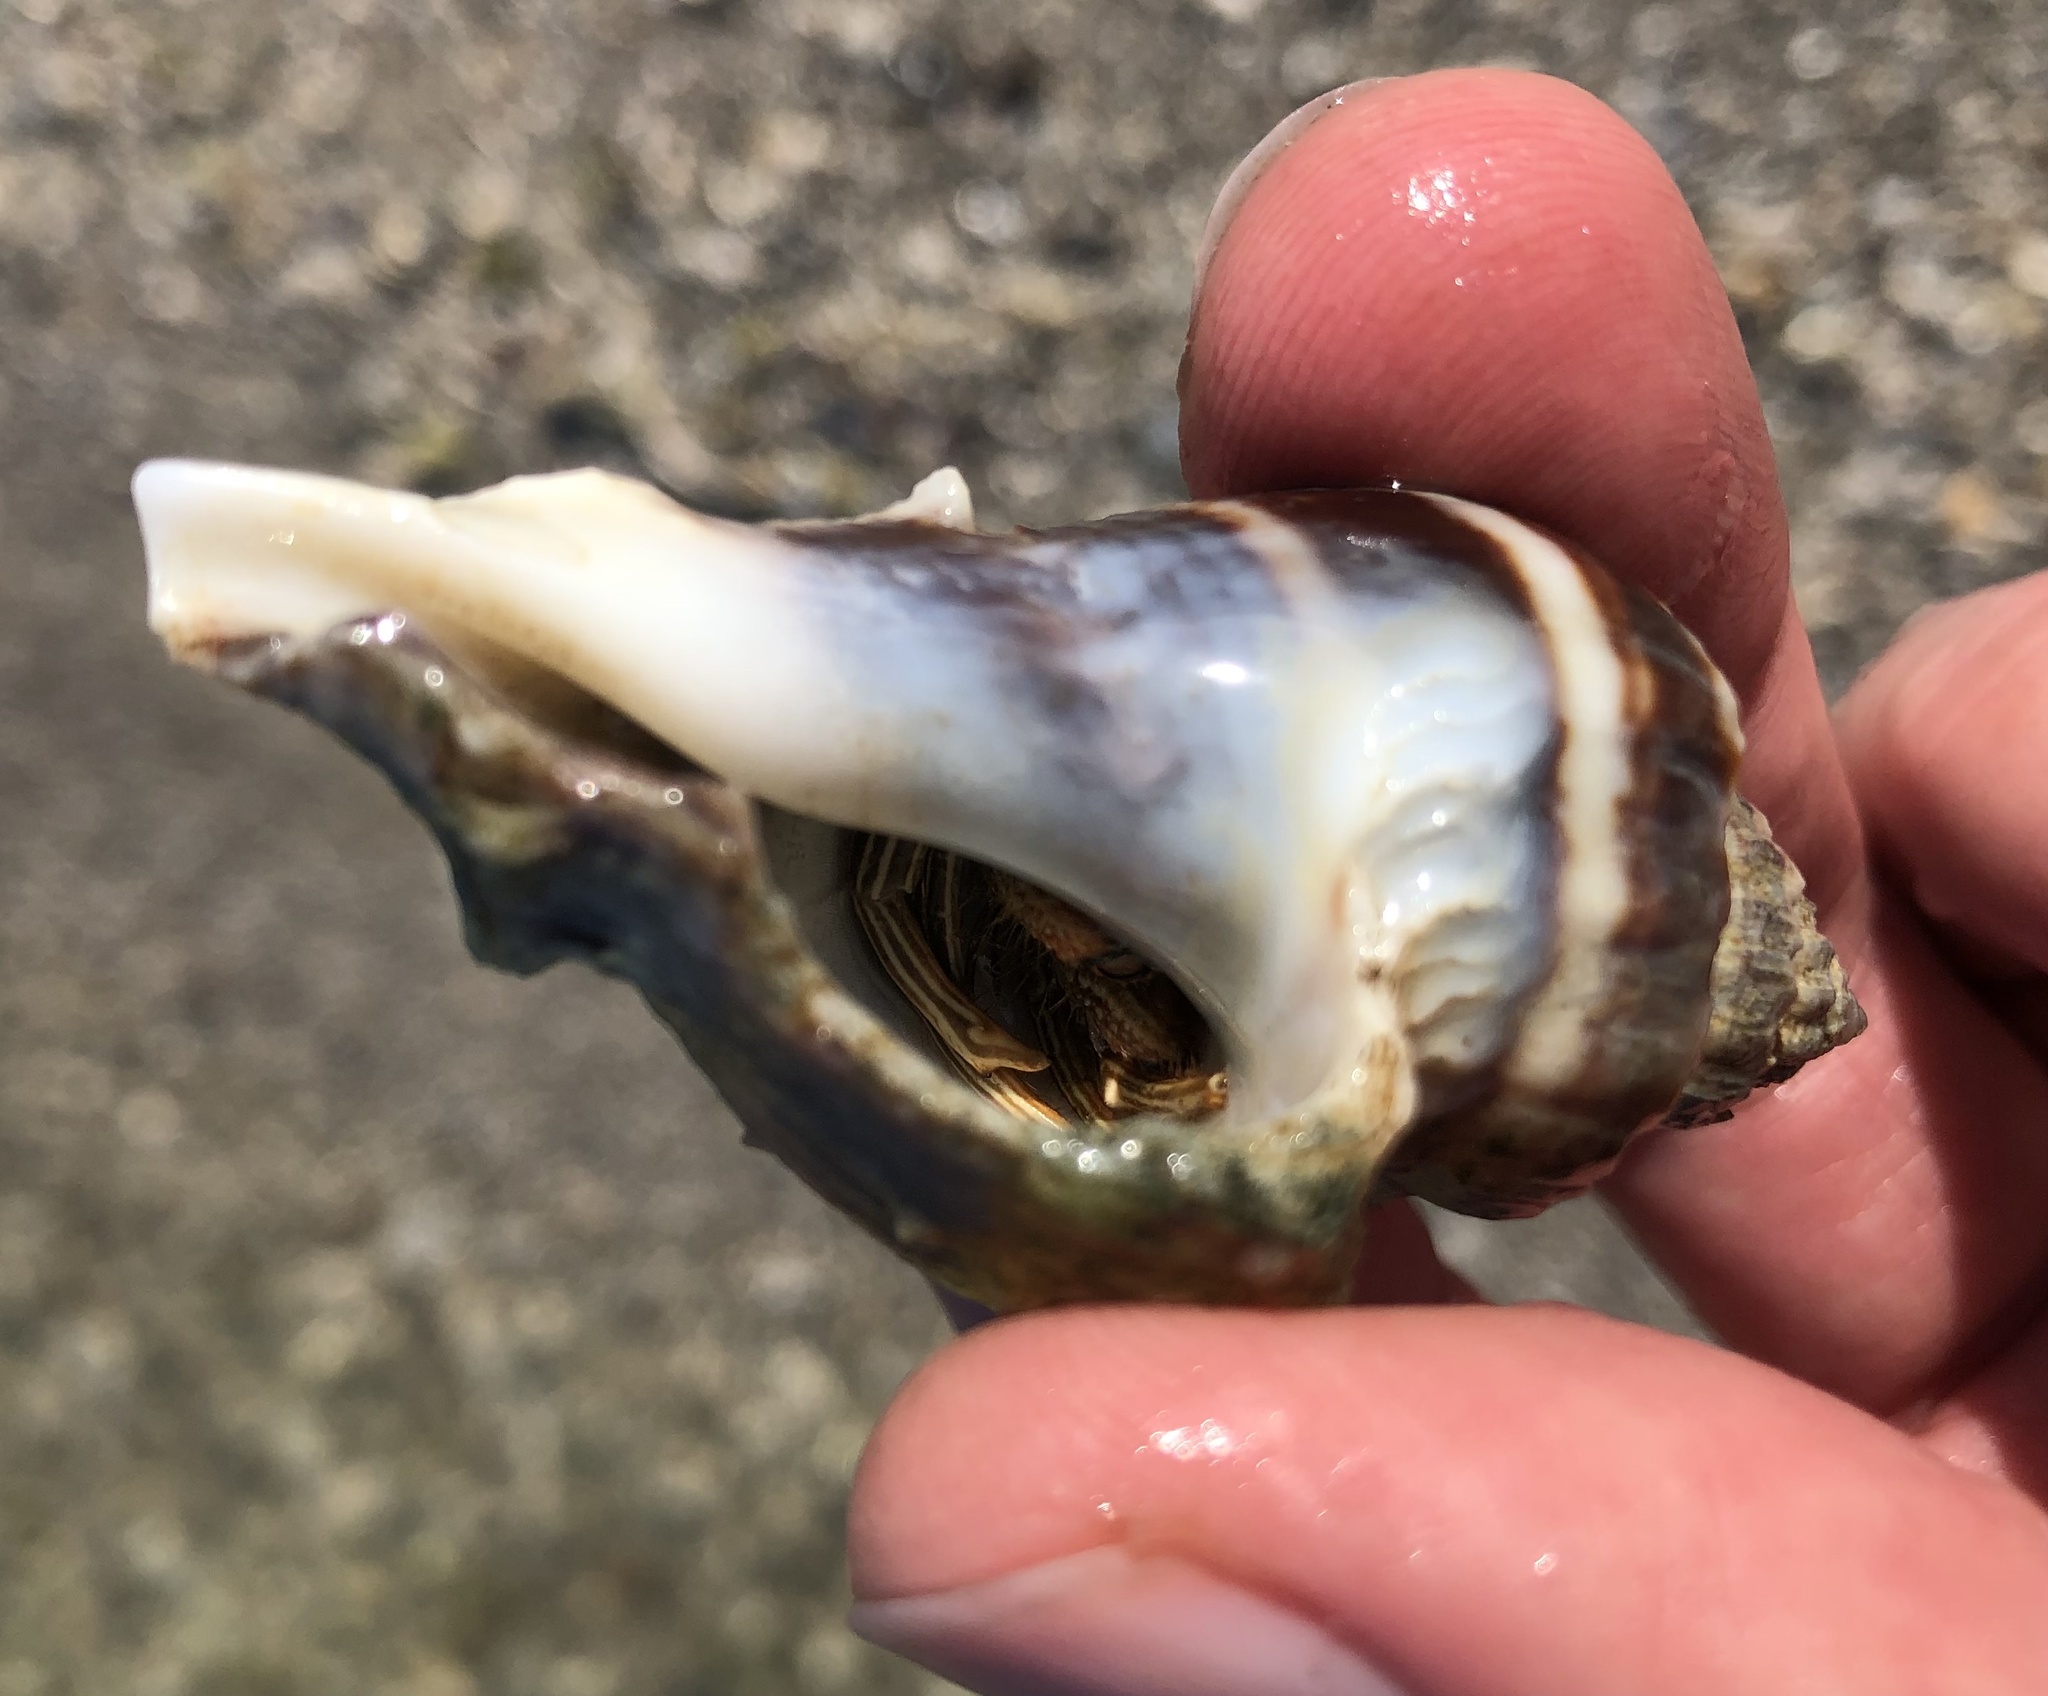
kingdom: Animalia
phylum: Arthropoda
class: Malacostraca
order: Decapoda
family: Diogenidae
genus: Clibanarius
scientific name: Clibanarius vittatus
